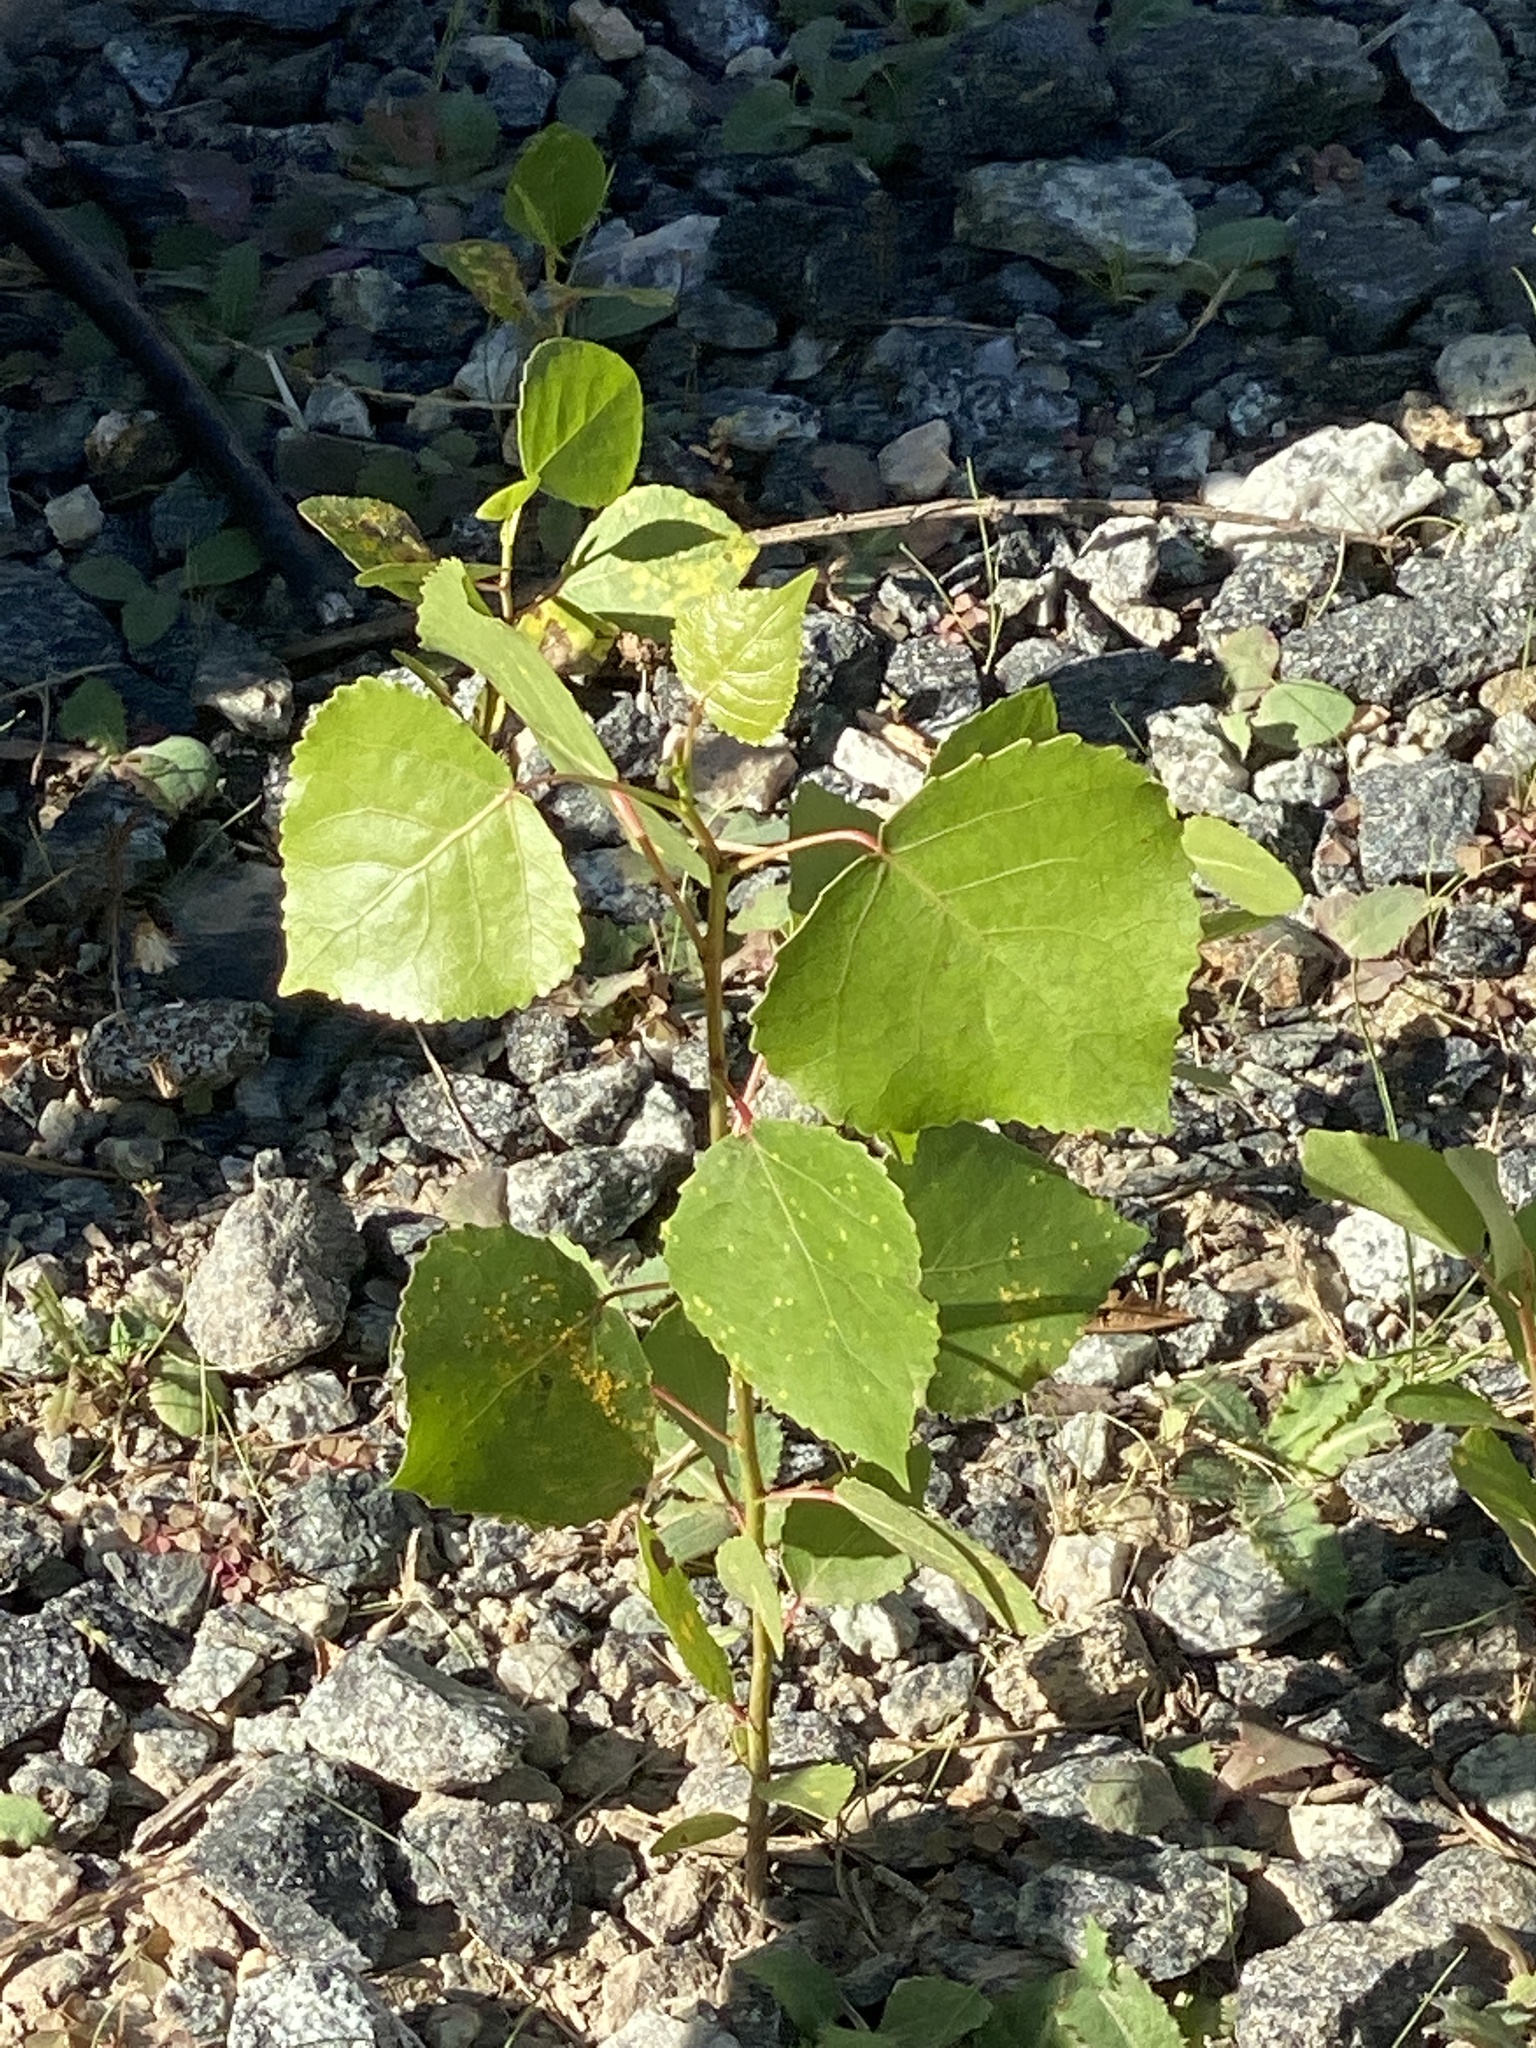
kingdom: Plantae
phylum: Tracheophyta
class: Magnoliopsida
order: Malpighiales
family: Salicaceae
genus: Populus
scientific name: Populus deltoides
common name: Eastern cottonwood
